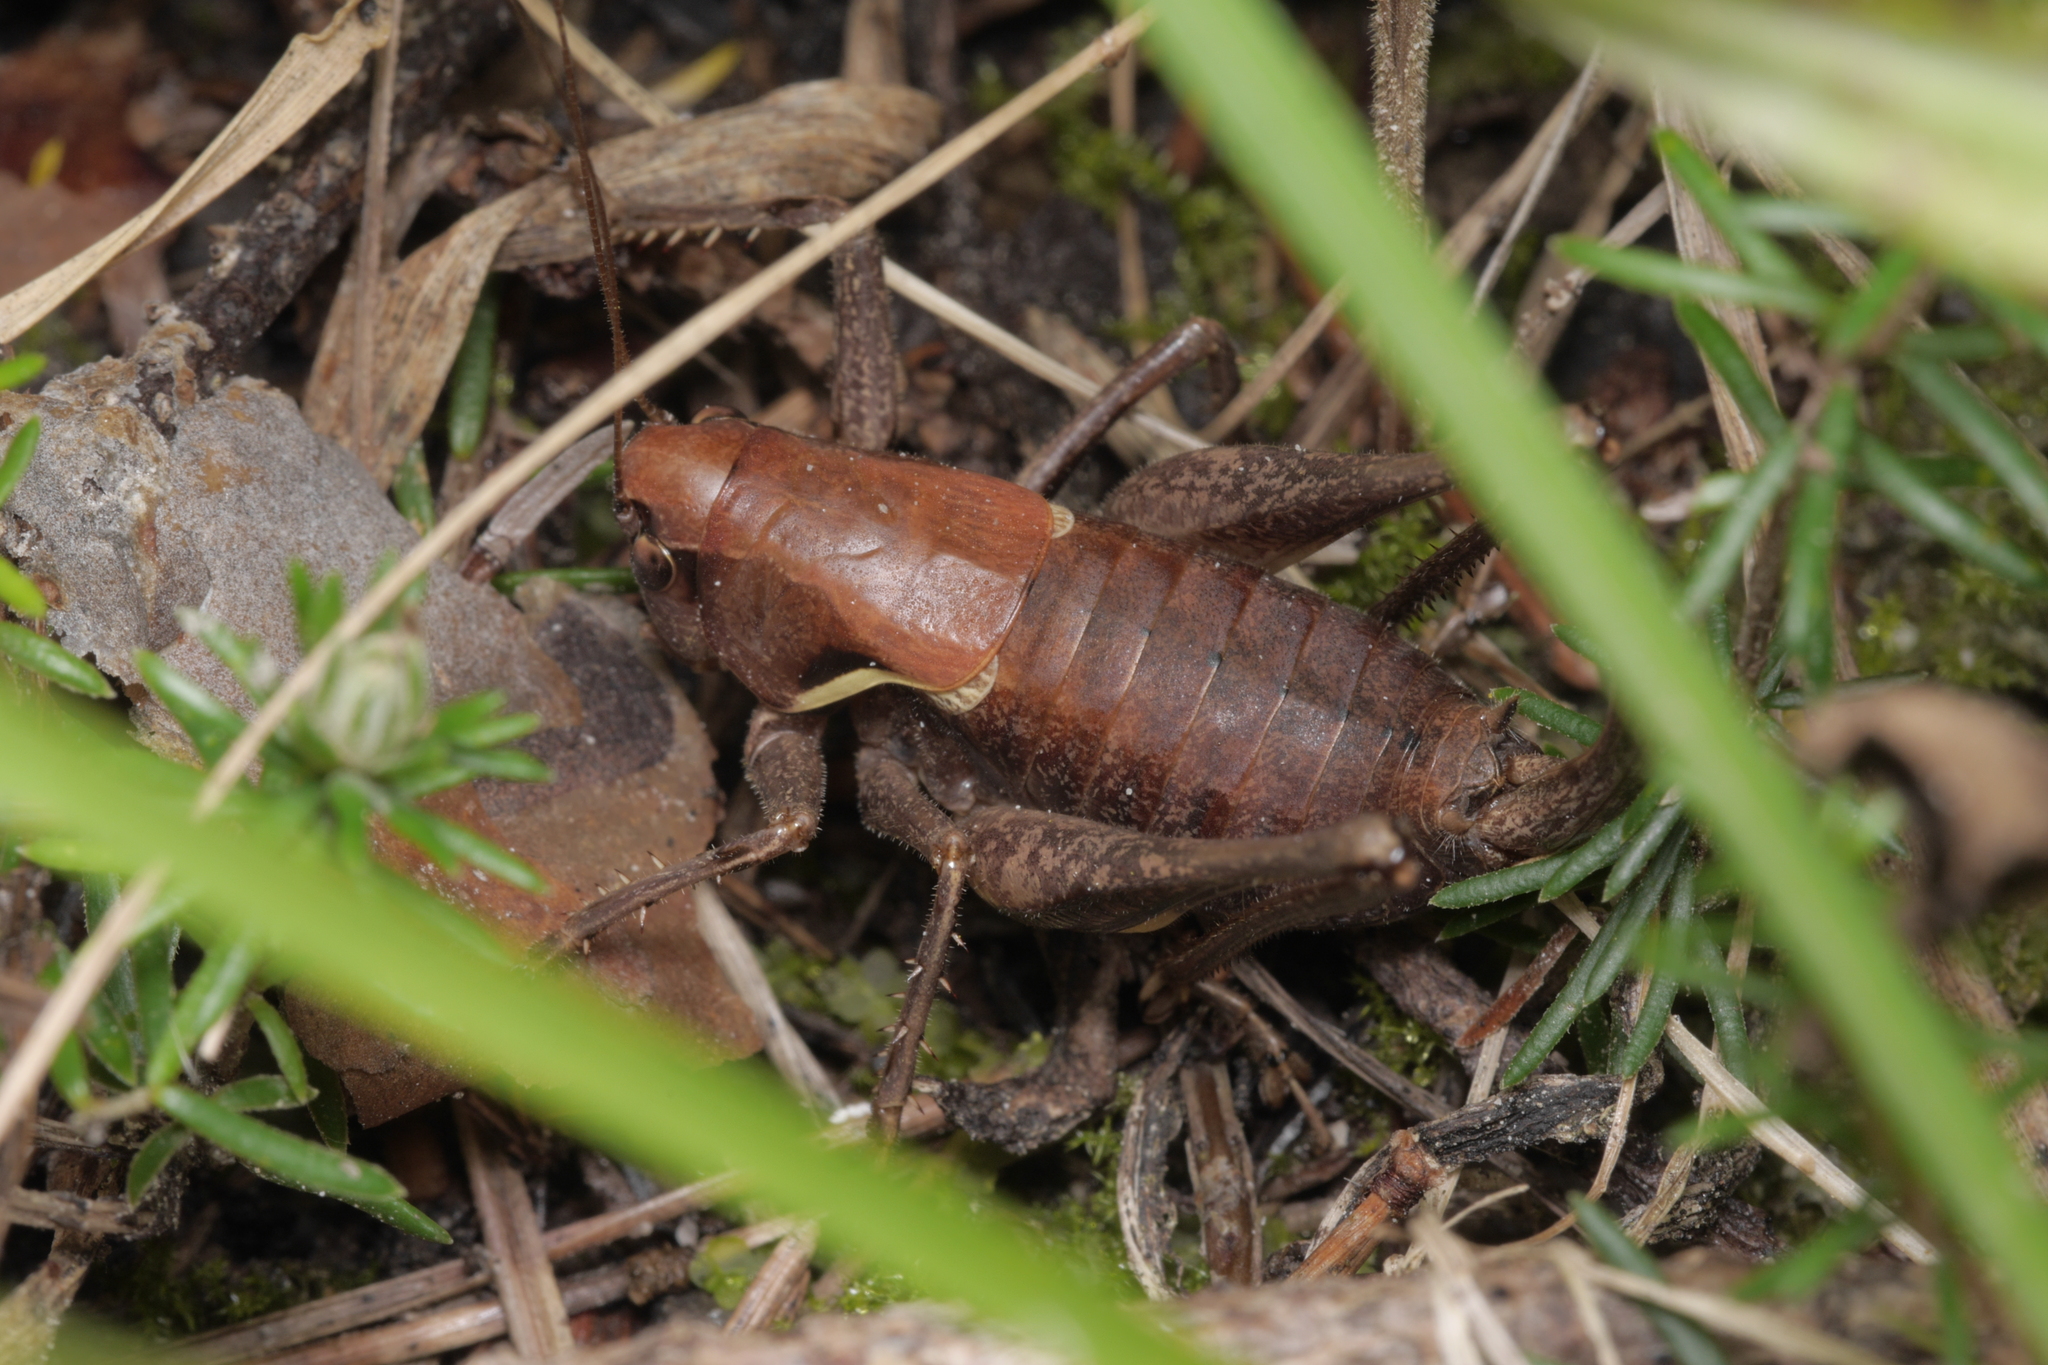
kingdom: Animalia
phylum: Arthropoda
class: Insecta
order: Orthoptera
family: Tettigoniidae
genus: Pholidoptera
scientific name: Pholidoptera aptera
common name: Alpine dark bush-cricket
